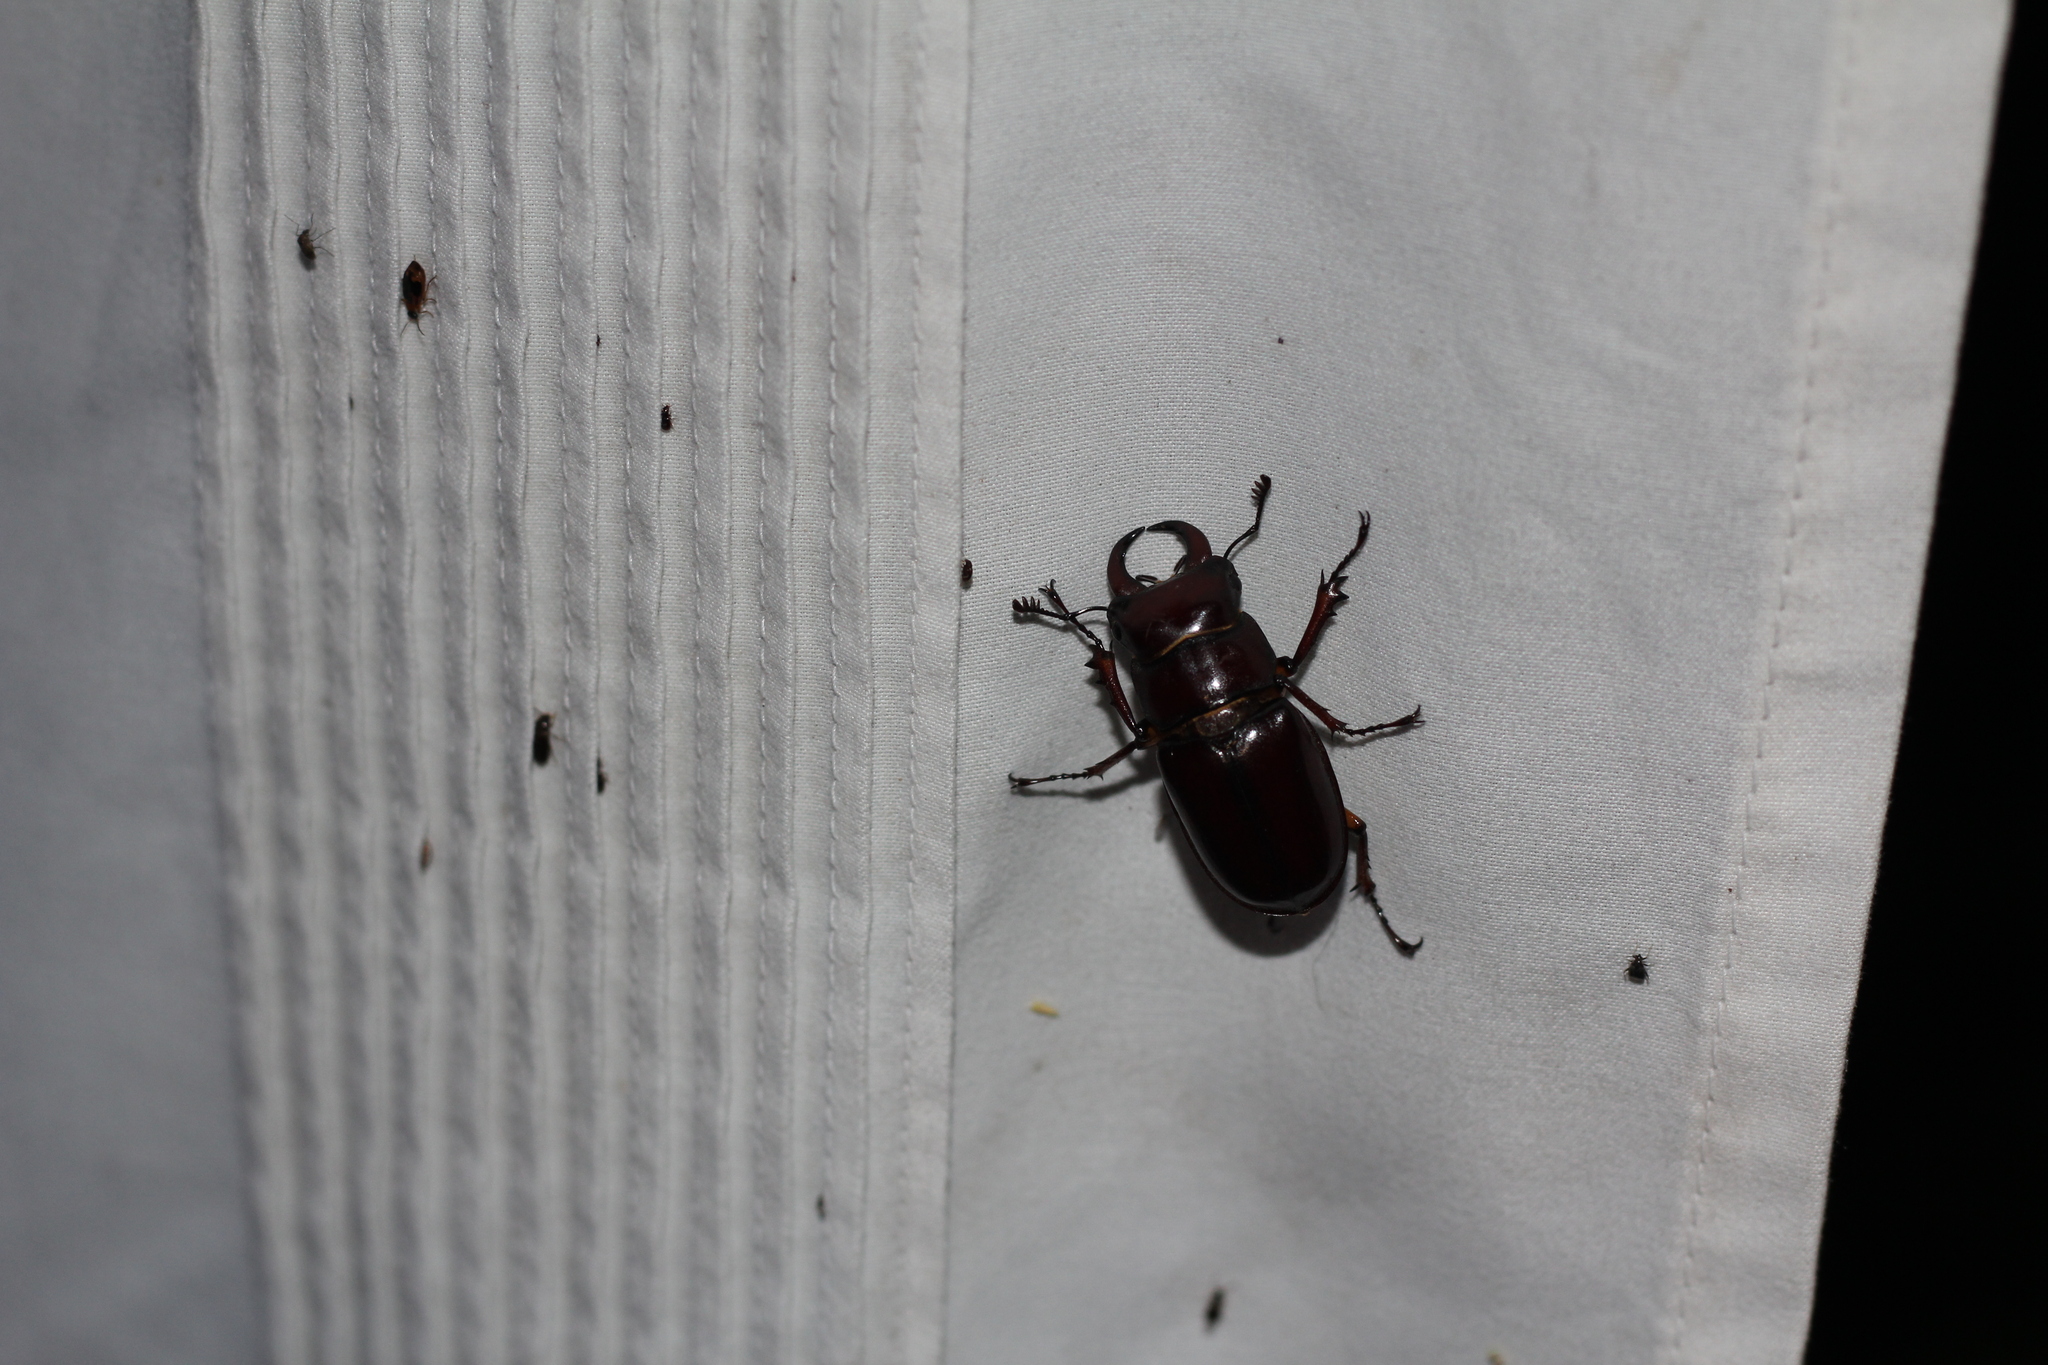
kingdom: Animalia
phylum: Arthropoda
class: Insecta
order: Coleoptera
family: Lucanidae
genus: Lucanus
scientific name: Lucanus capreolus
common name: Stag beetle
